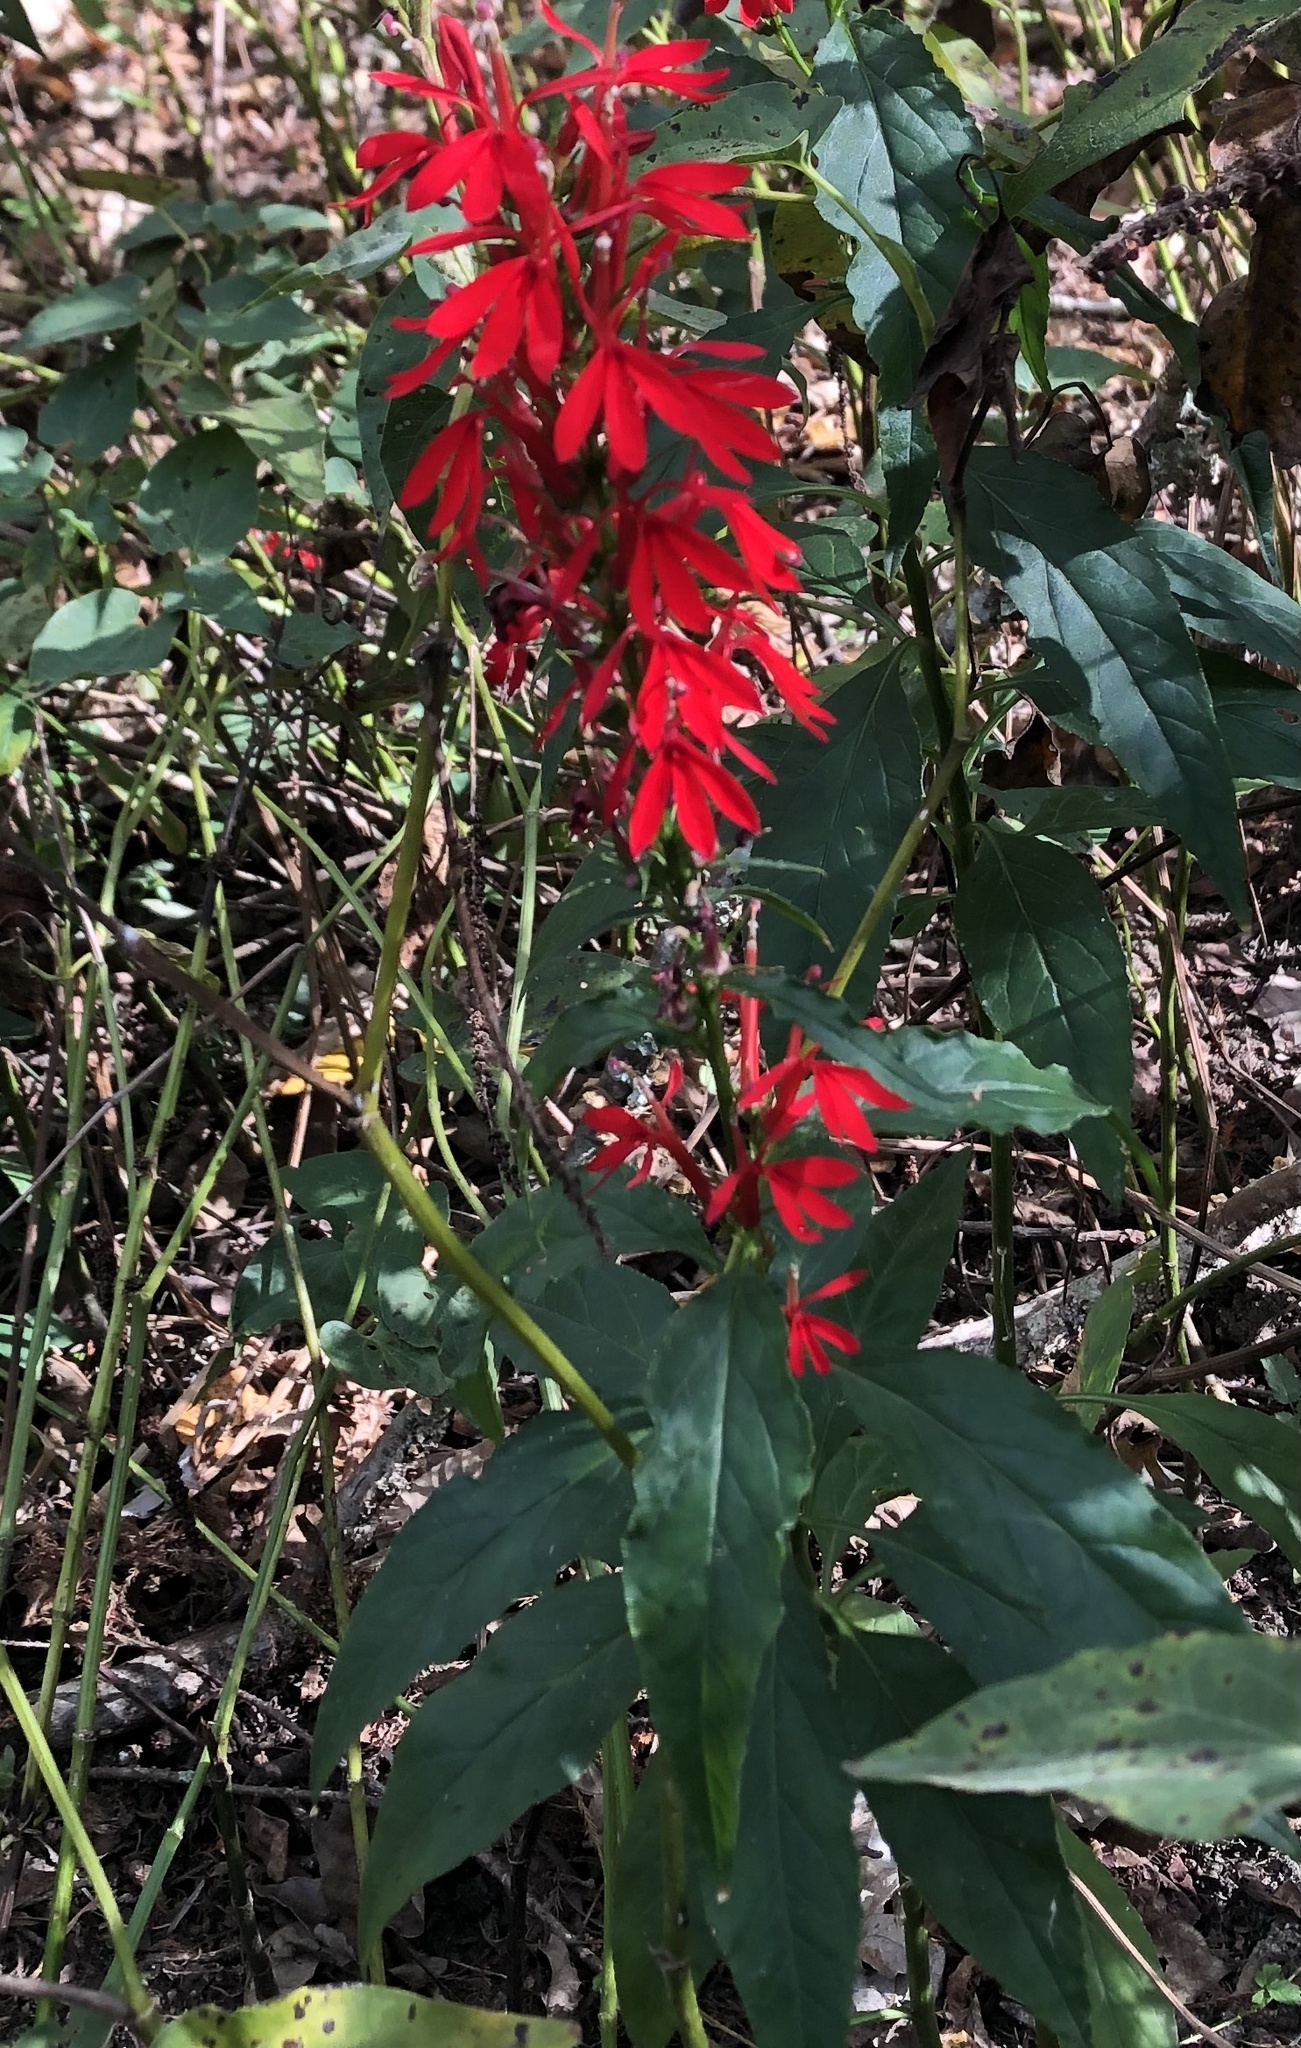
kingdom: Plantae
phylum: Tracheophyta
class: Magnoliopsida
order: Asterales
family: Campanulaceae
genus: Lobelia
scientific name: Lobelia cardinalis
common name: Cardinal flower
